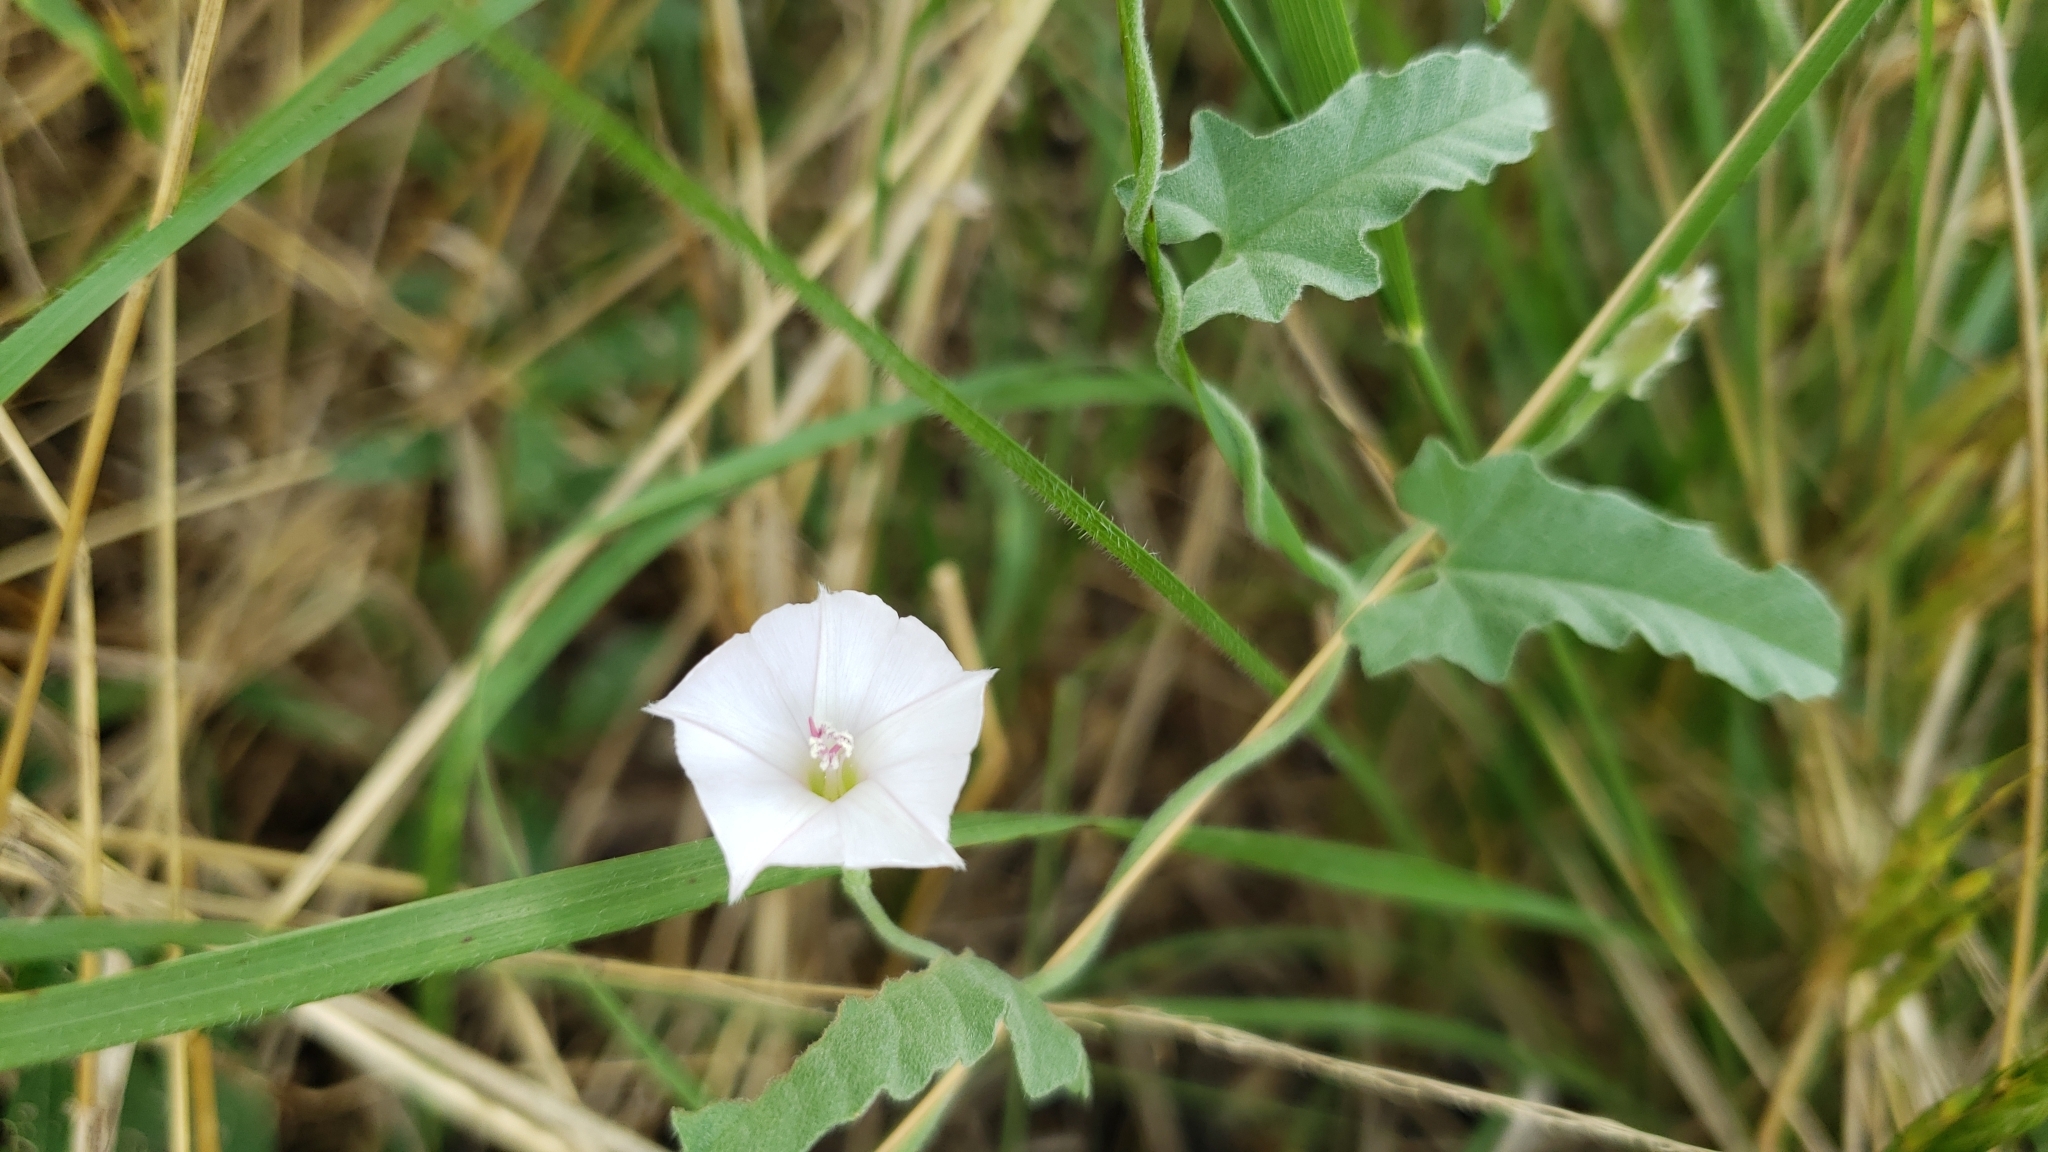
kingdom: Plantae
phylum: Tracheophyta
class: Magnoliopsida
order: Solanales
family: Convolvulaceae
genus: Convolvulus
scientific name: Convolvulus equitans
